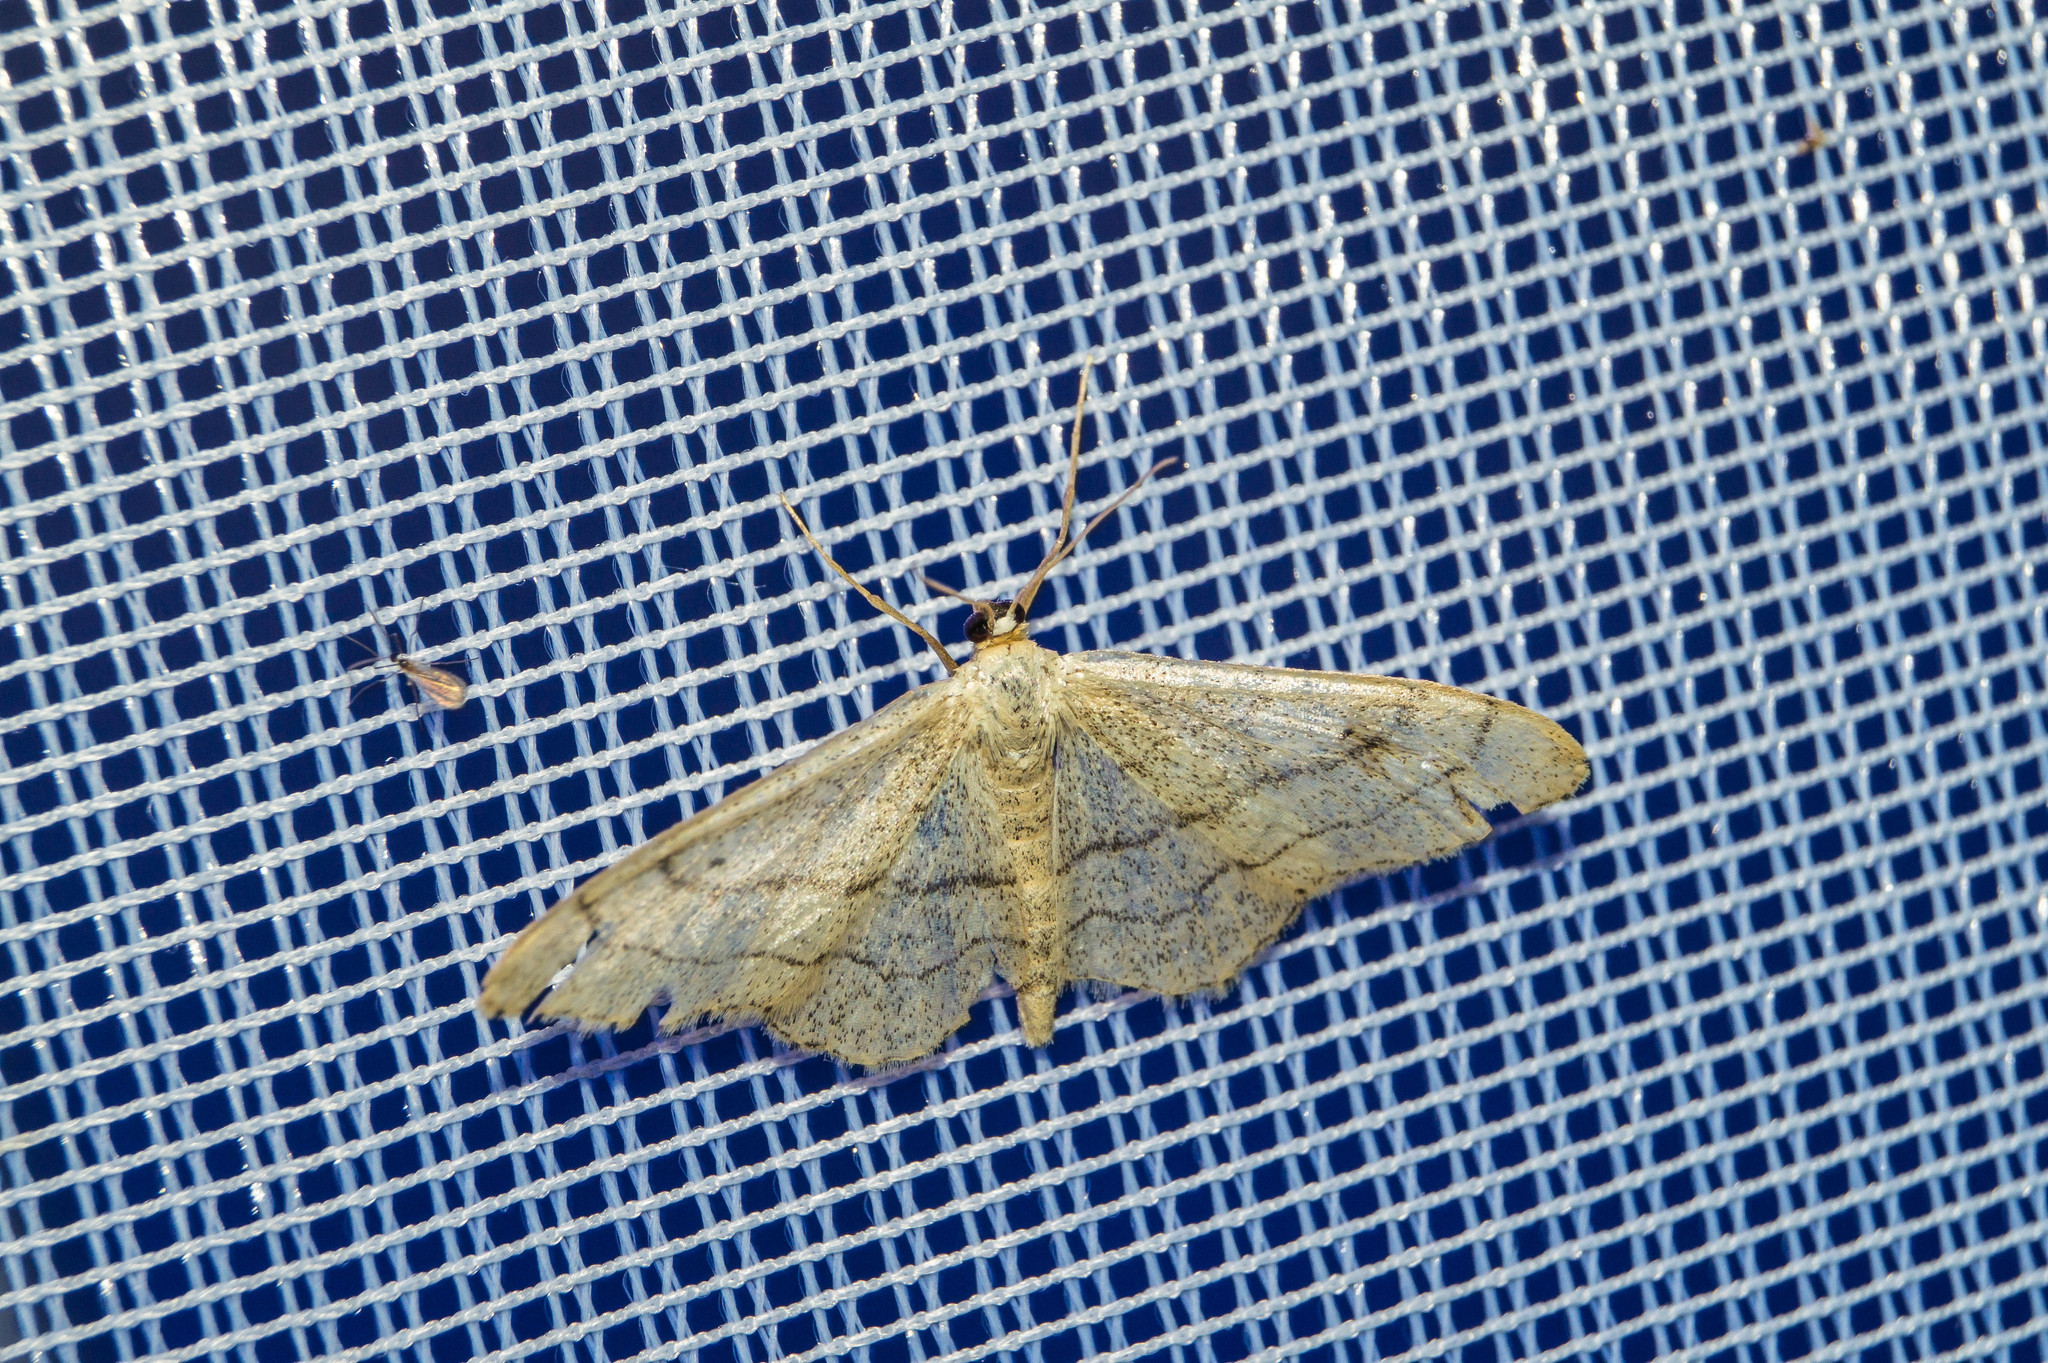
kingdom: Animalia
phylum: Arthropoda
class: Insecta
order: Lepidoptera
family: Geometridae
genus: Idaea
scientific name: Idaea aversata
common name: Riband wave
